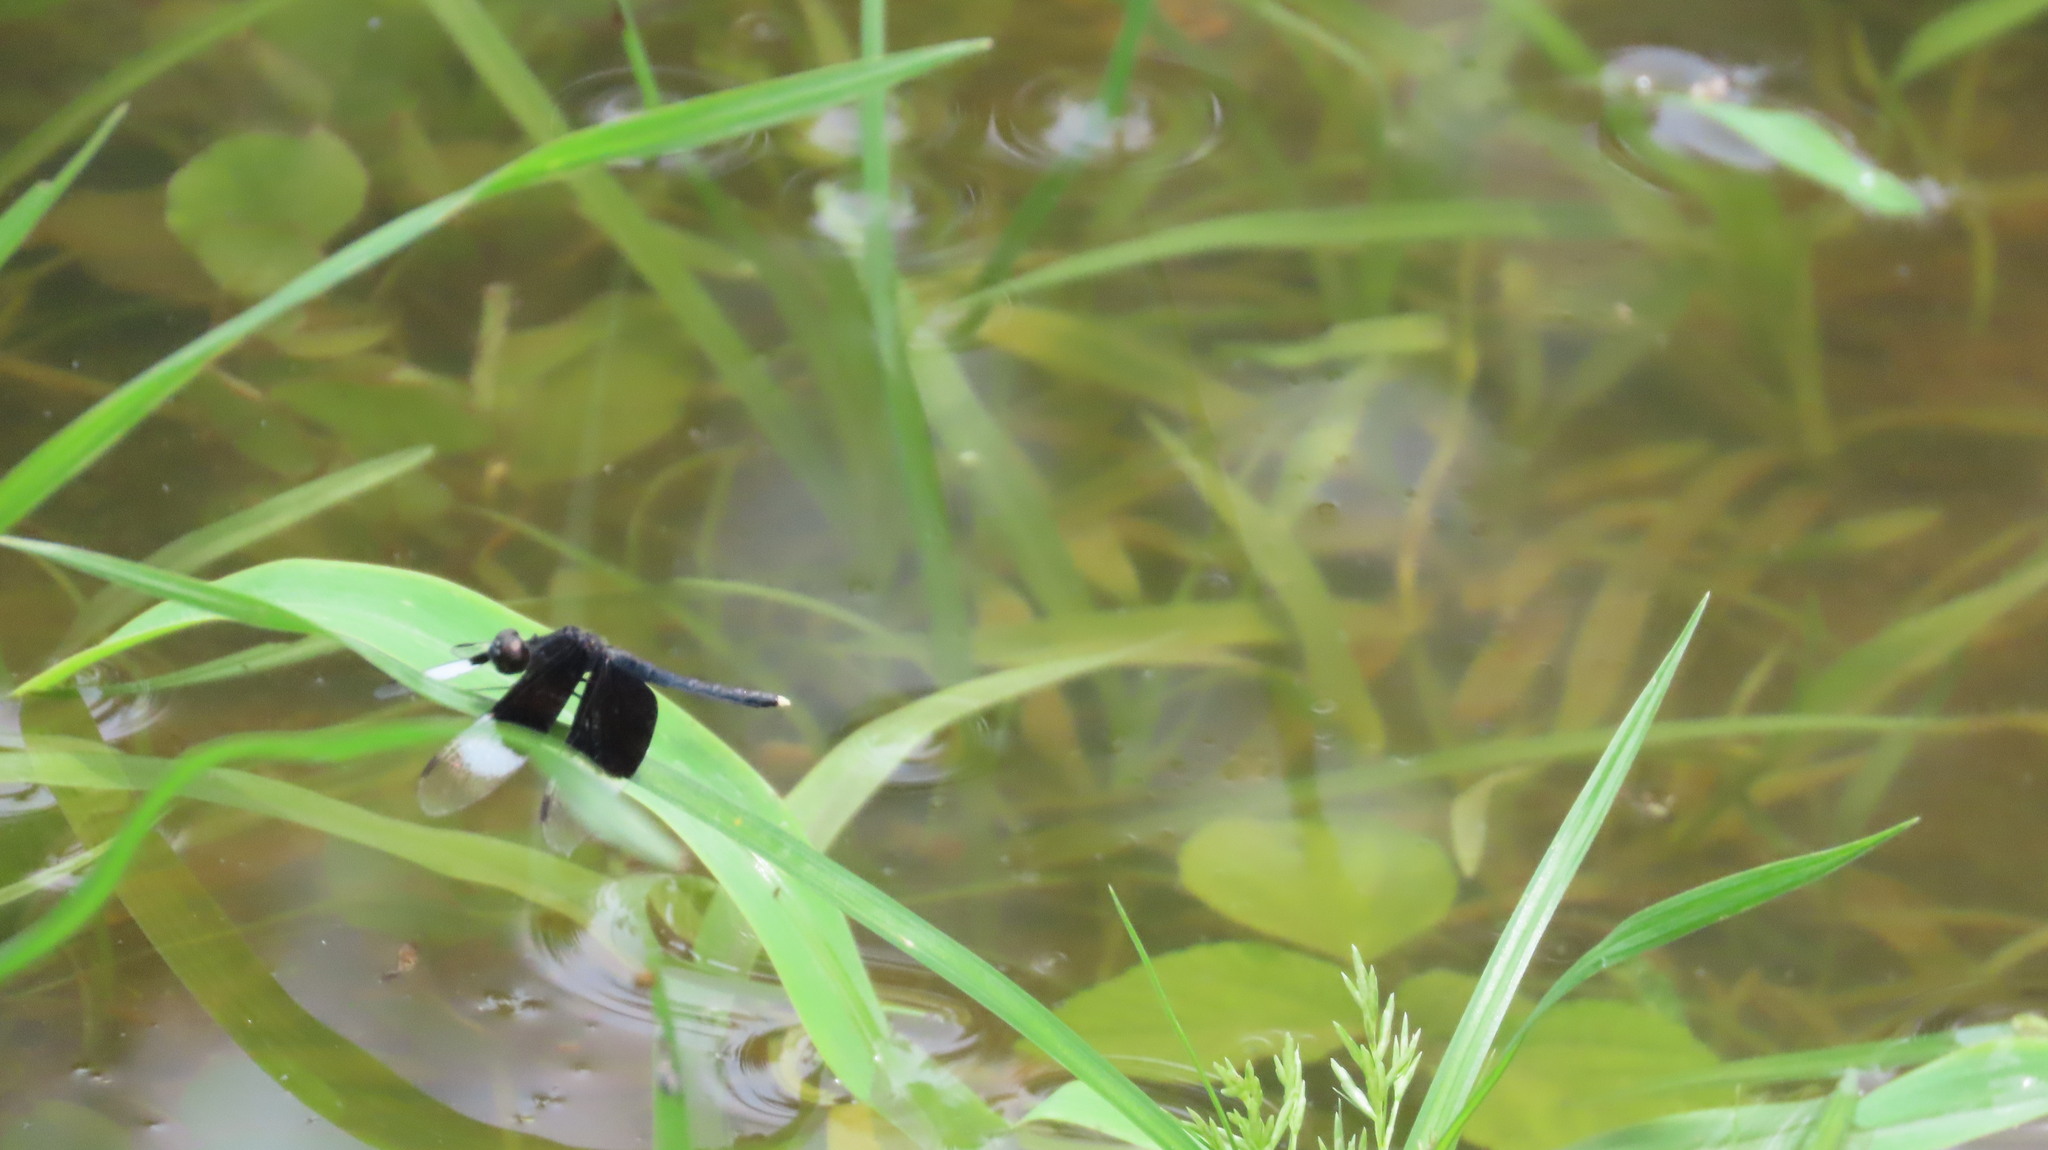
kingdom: Animalia
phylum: Arthropoda
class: Insecta
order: Odonata
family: Libellulidae
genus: Neurothemis
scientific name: Neurothemis tullia
